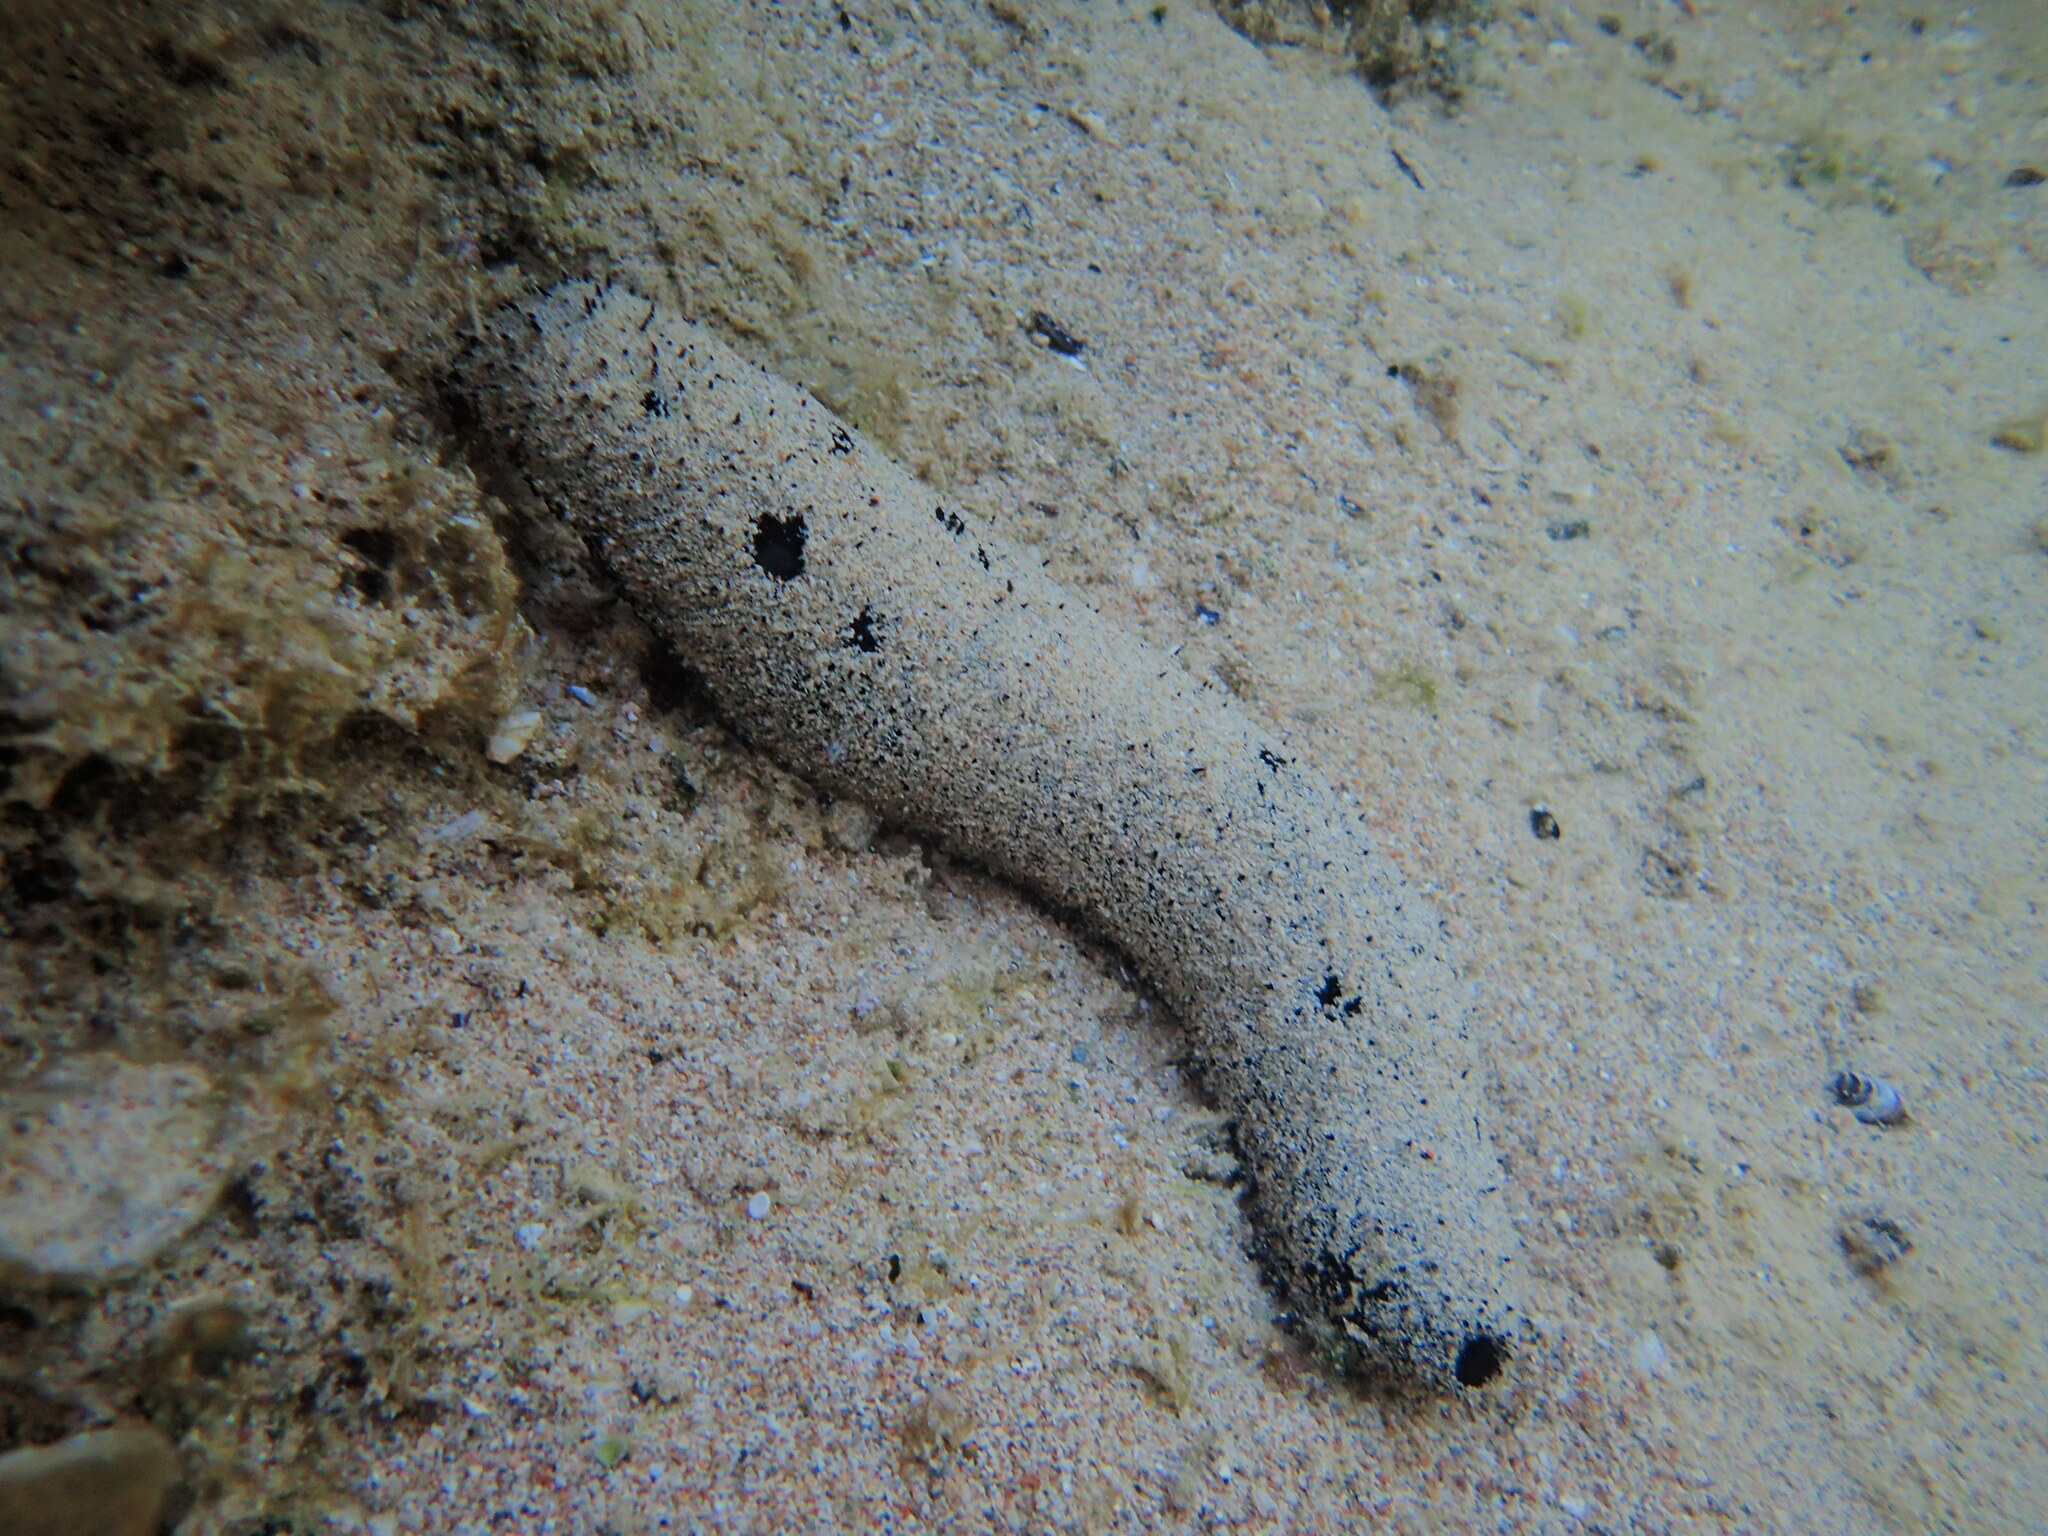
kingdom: Animalia
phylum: Echinodermata
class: Holothuroidea
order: Holothuriida
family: Holothuriidae
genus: Holothuria
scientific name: Holothuria atra
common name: Lollyfish
